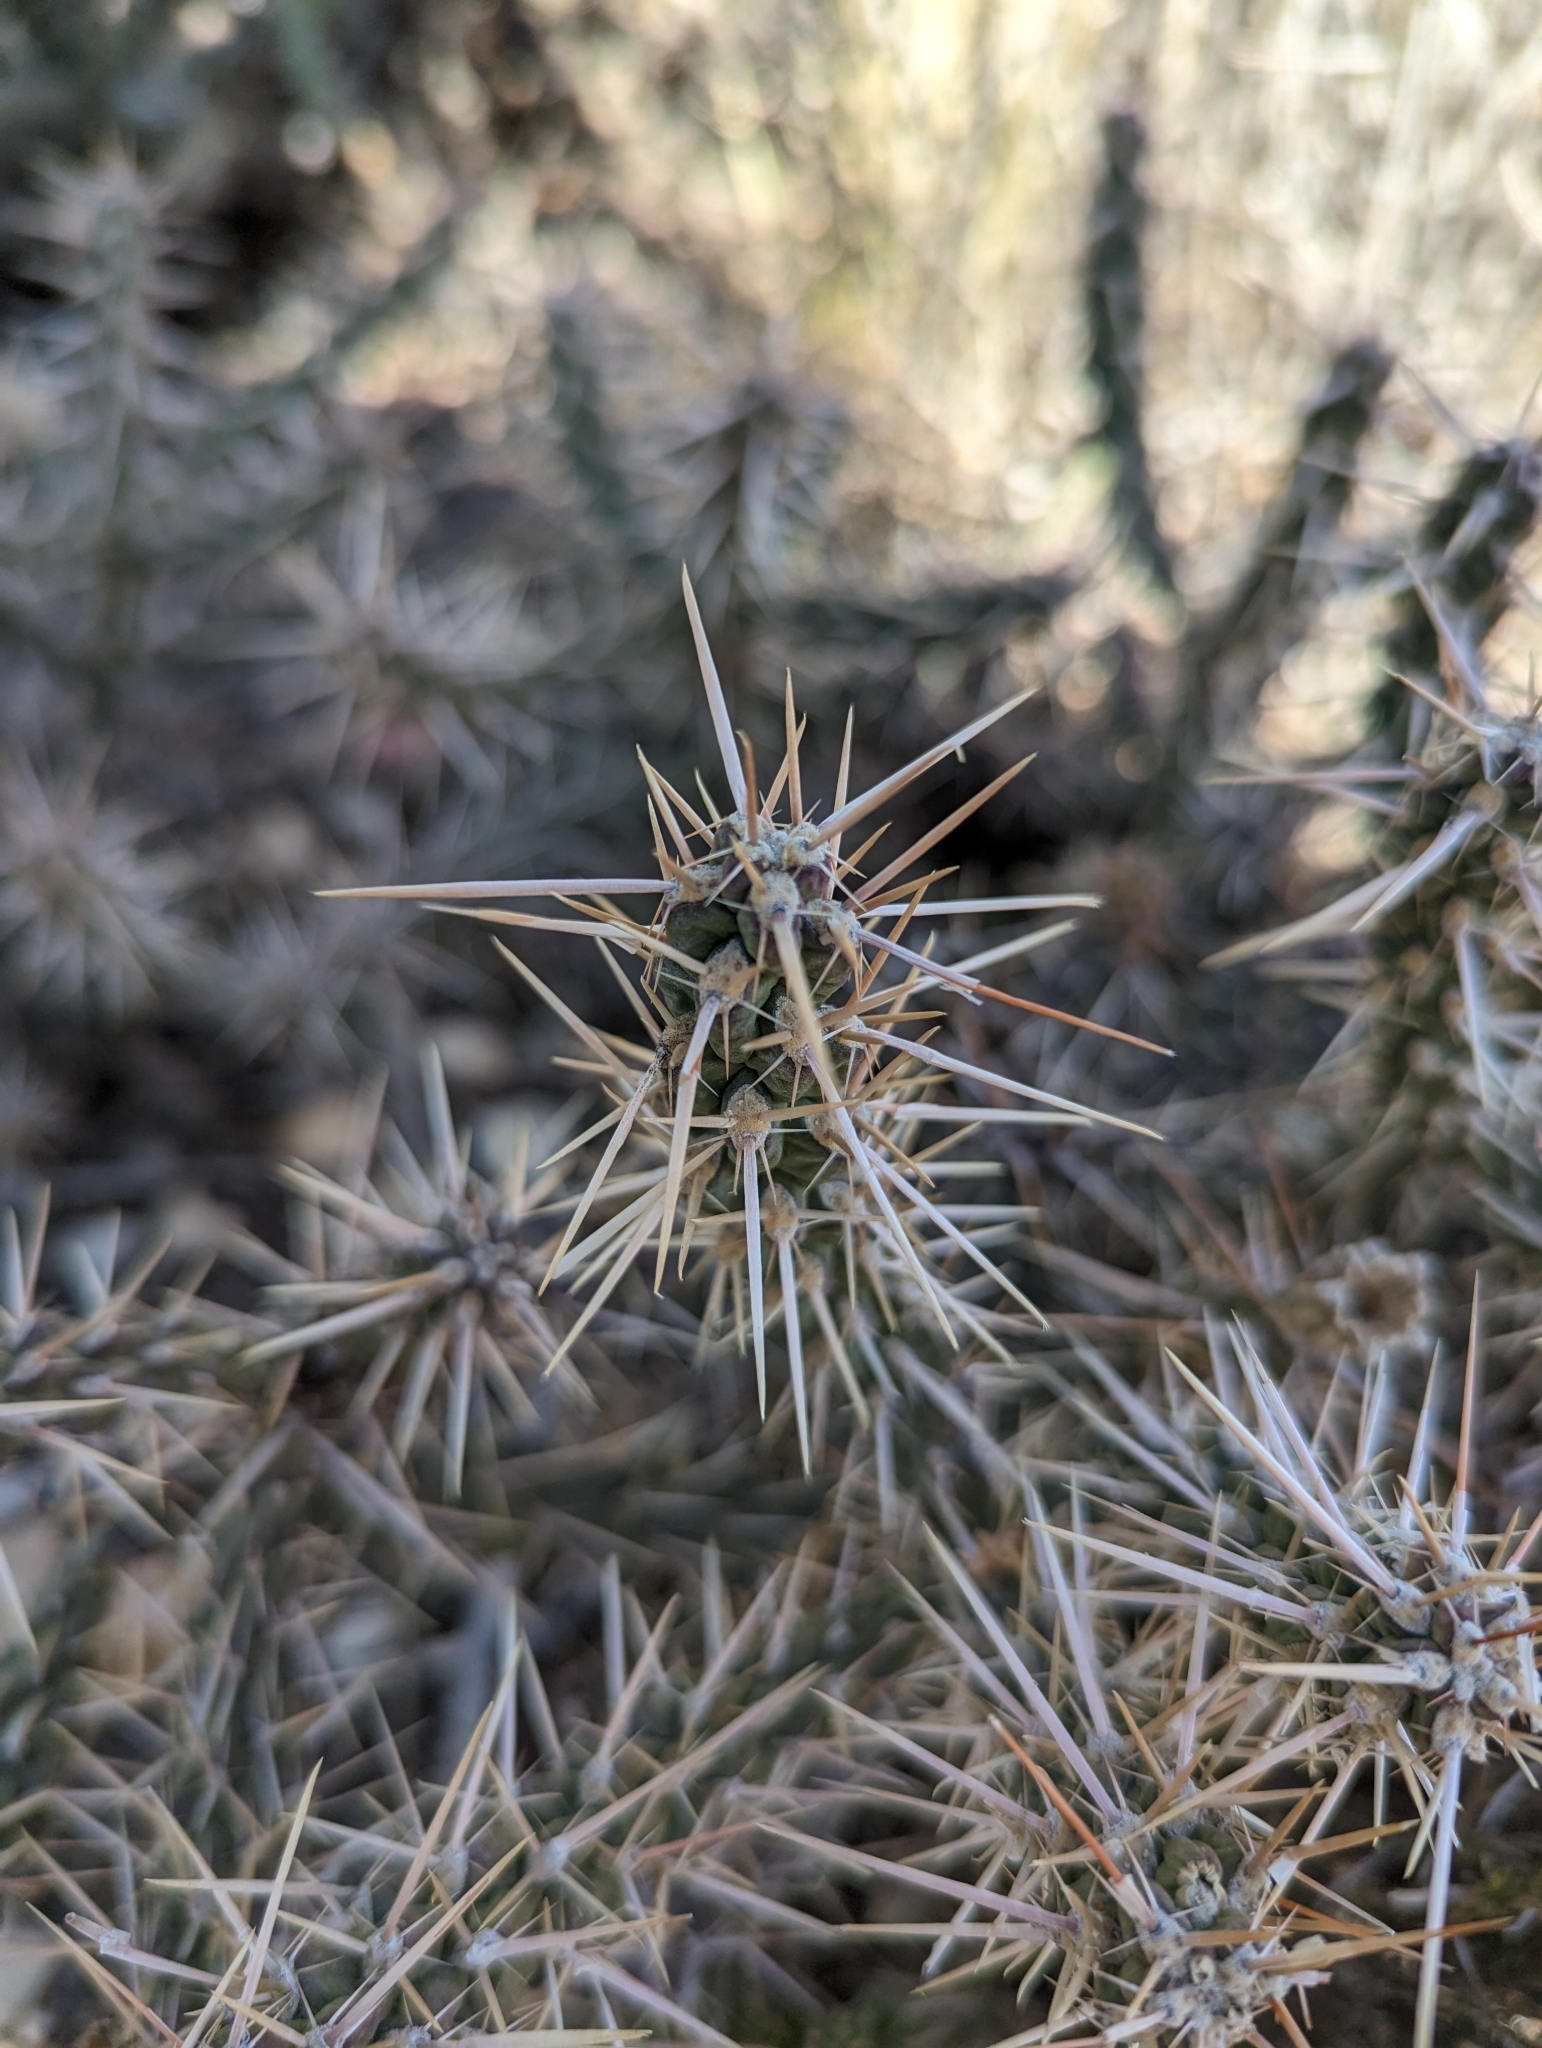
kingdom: Plantae
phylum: Tracheophyta
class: Magnoliopsida
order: Caryophyllales
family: Cactaceae
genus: Cylindropuntia
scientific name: Cylindropuntia whipplei
